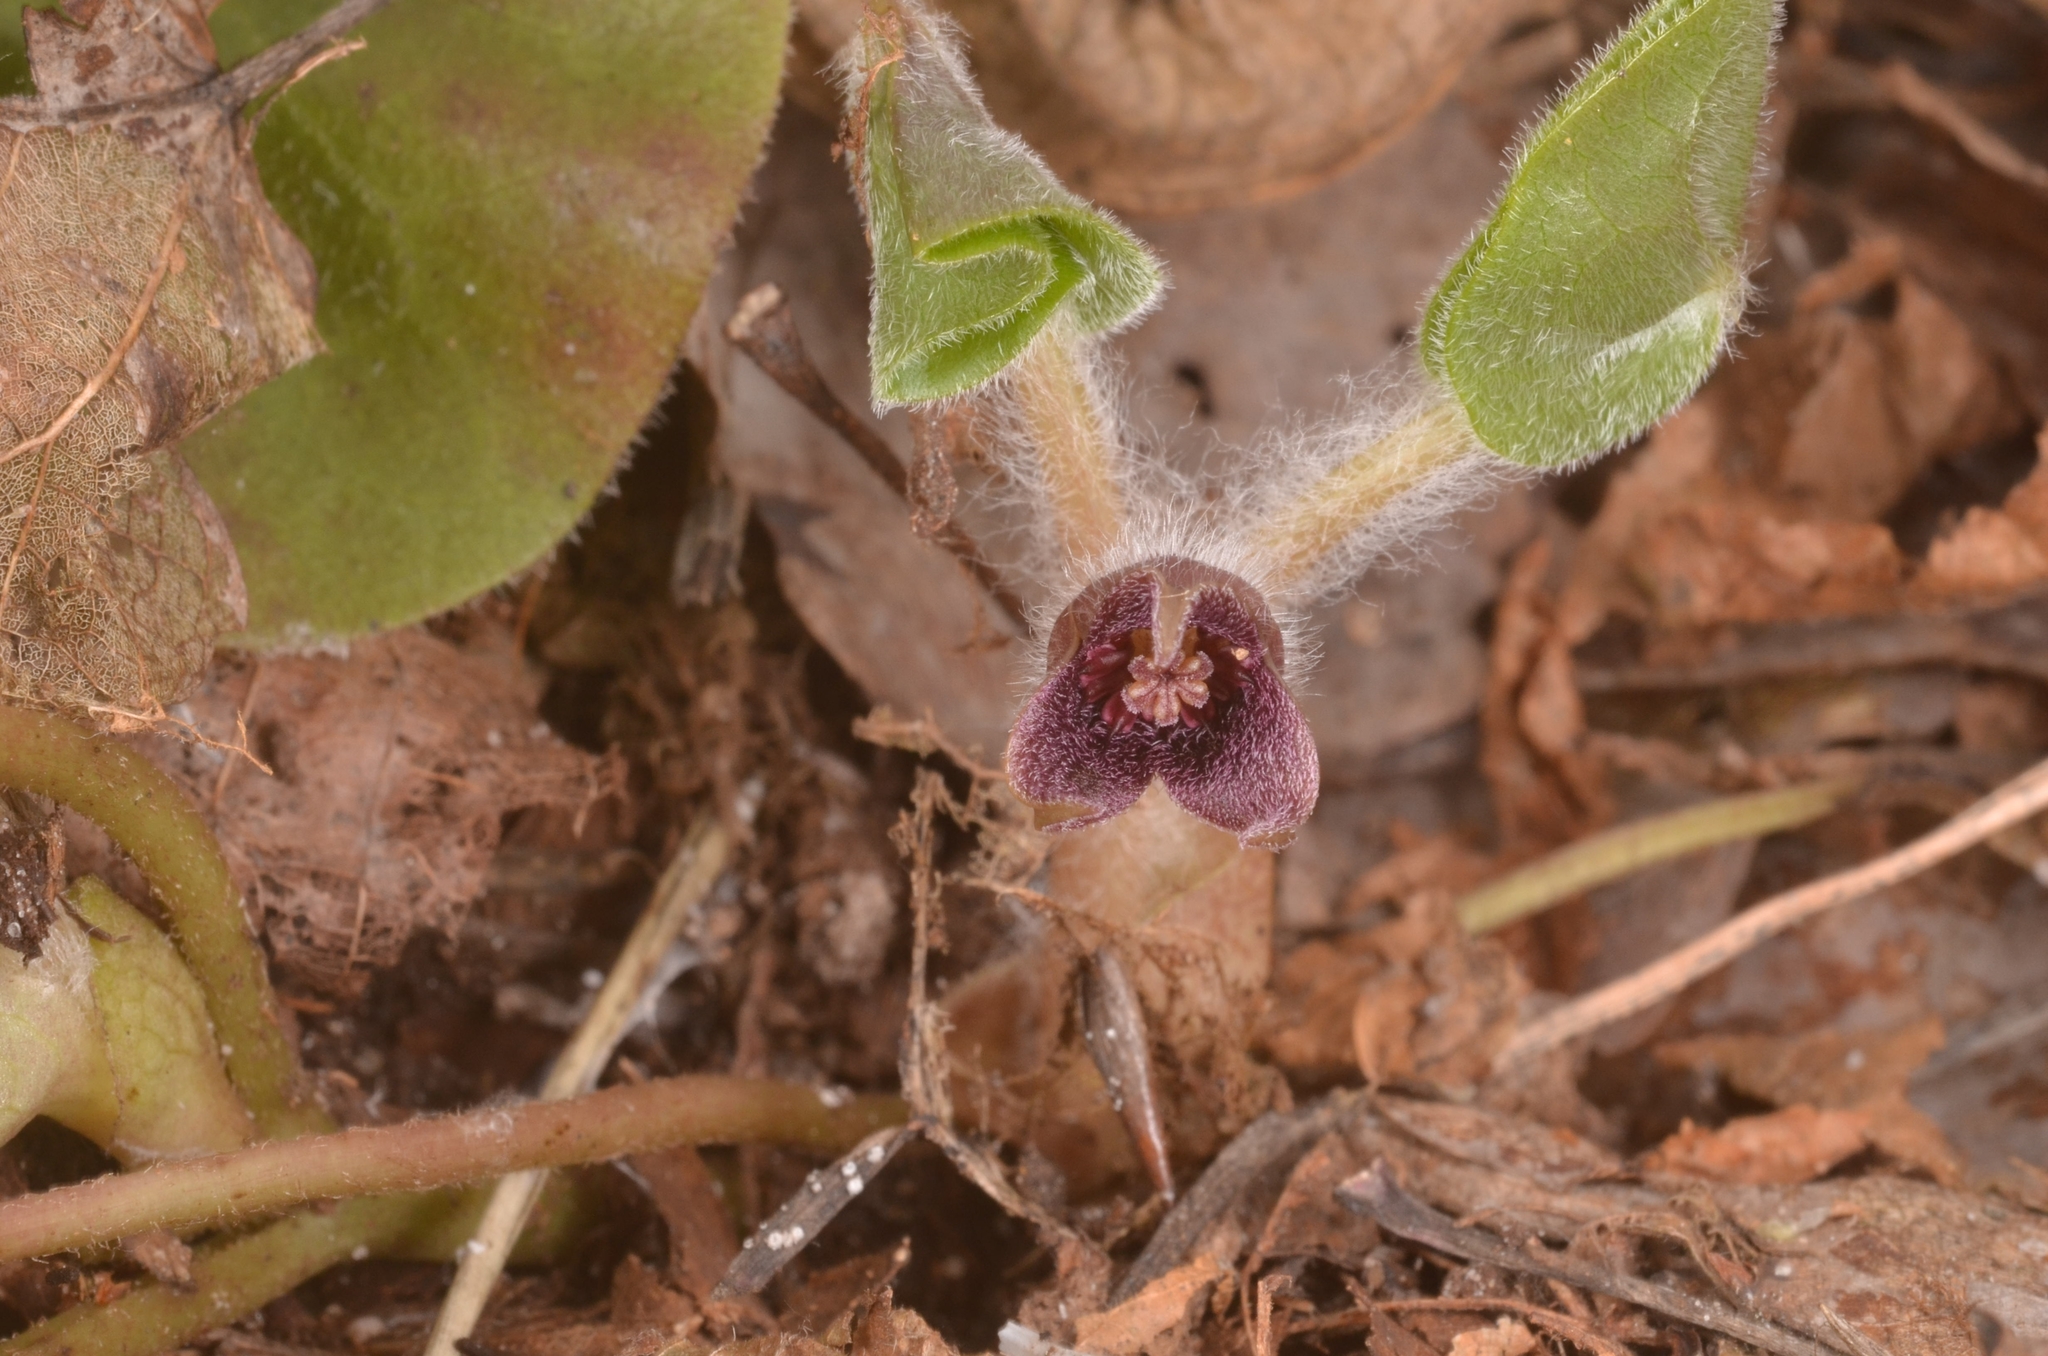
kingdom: Plantae
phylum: Tracheophyta
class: Magnoliopsida
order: Piperales
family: Aristolochiaceae
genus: Asarum
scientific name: Asarum europaeum
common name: Asarabacca
